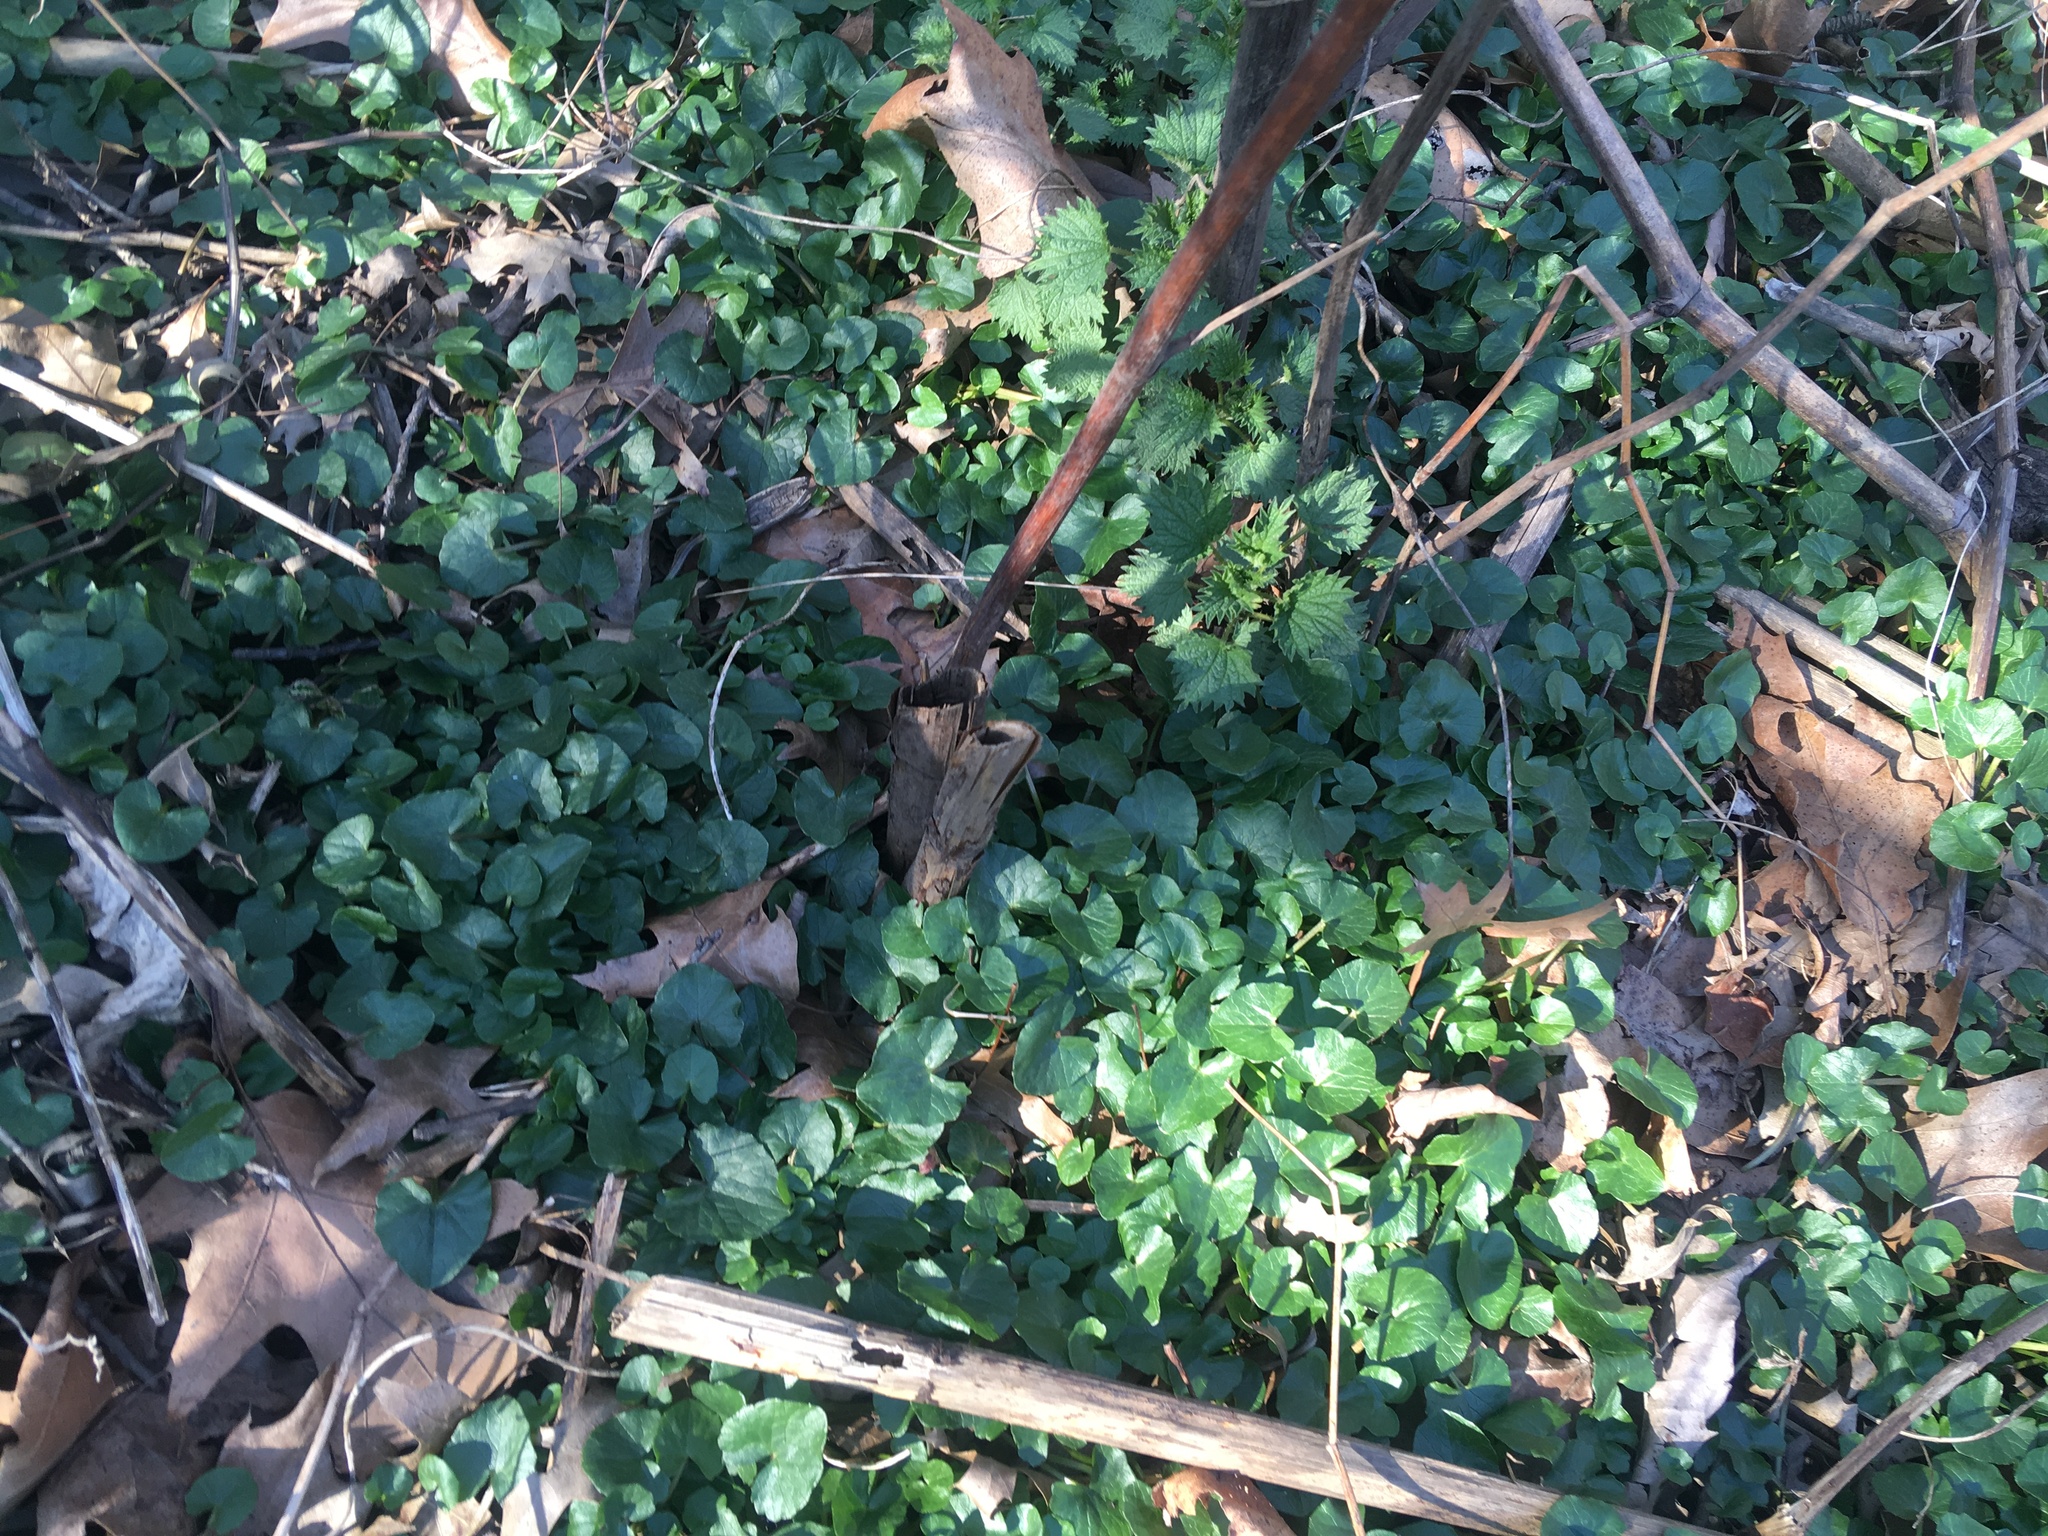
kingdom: Plantae
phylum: Tracheophyta
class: Magnoliopsida
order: Ranunculales
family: Ranunculaceae
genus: Ficaria
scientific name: Ficaria verna
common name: Lesser celandine
